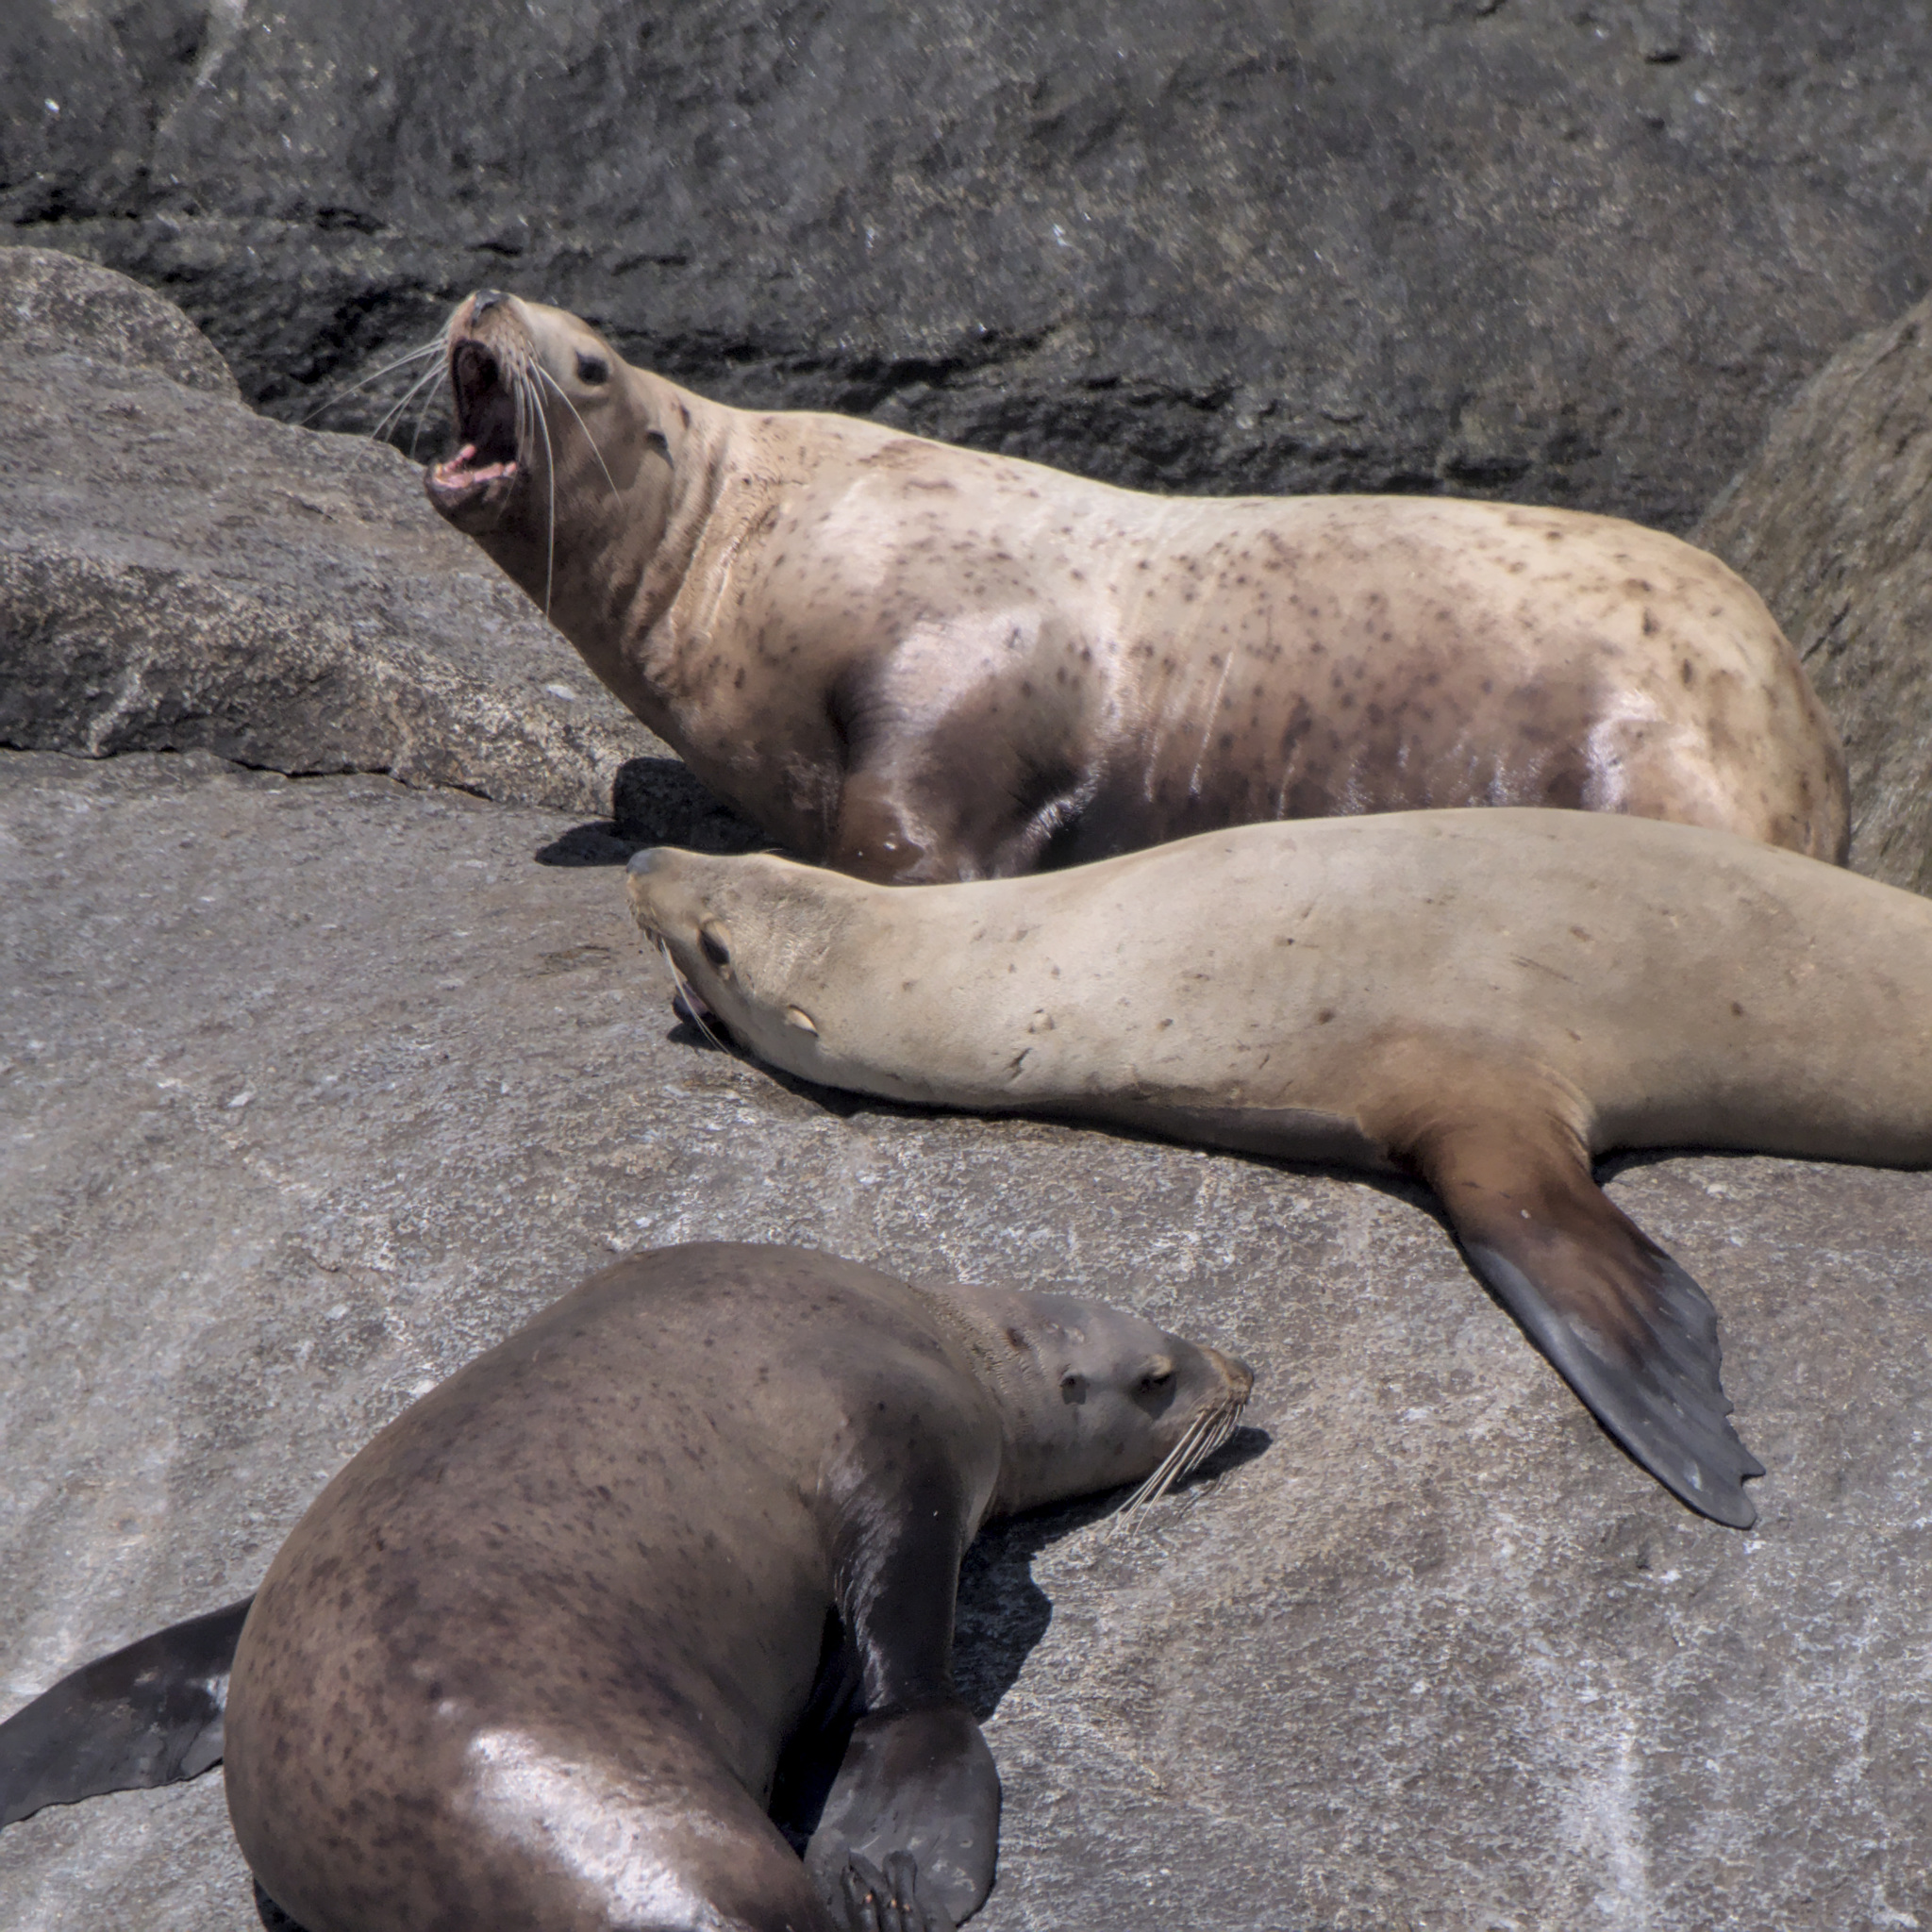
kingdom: Animalia
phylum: Chordata
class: Mammalia
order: Carnivora
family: Otariidae
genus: Eumetopias
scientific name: Eumetopias jubatus
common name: Steller sea lion
